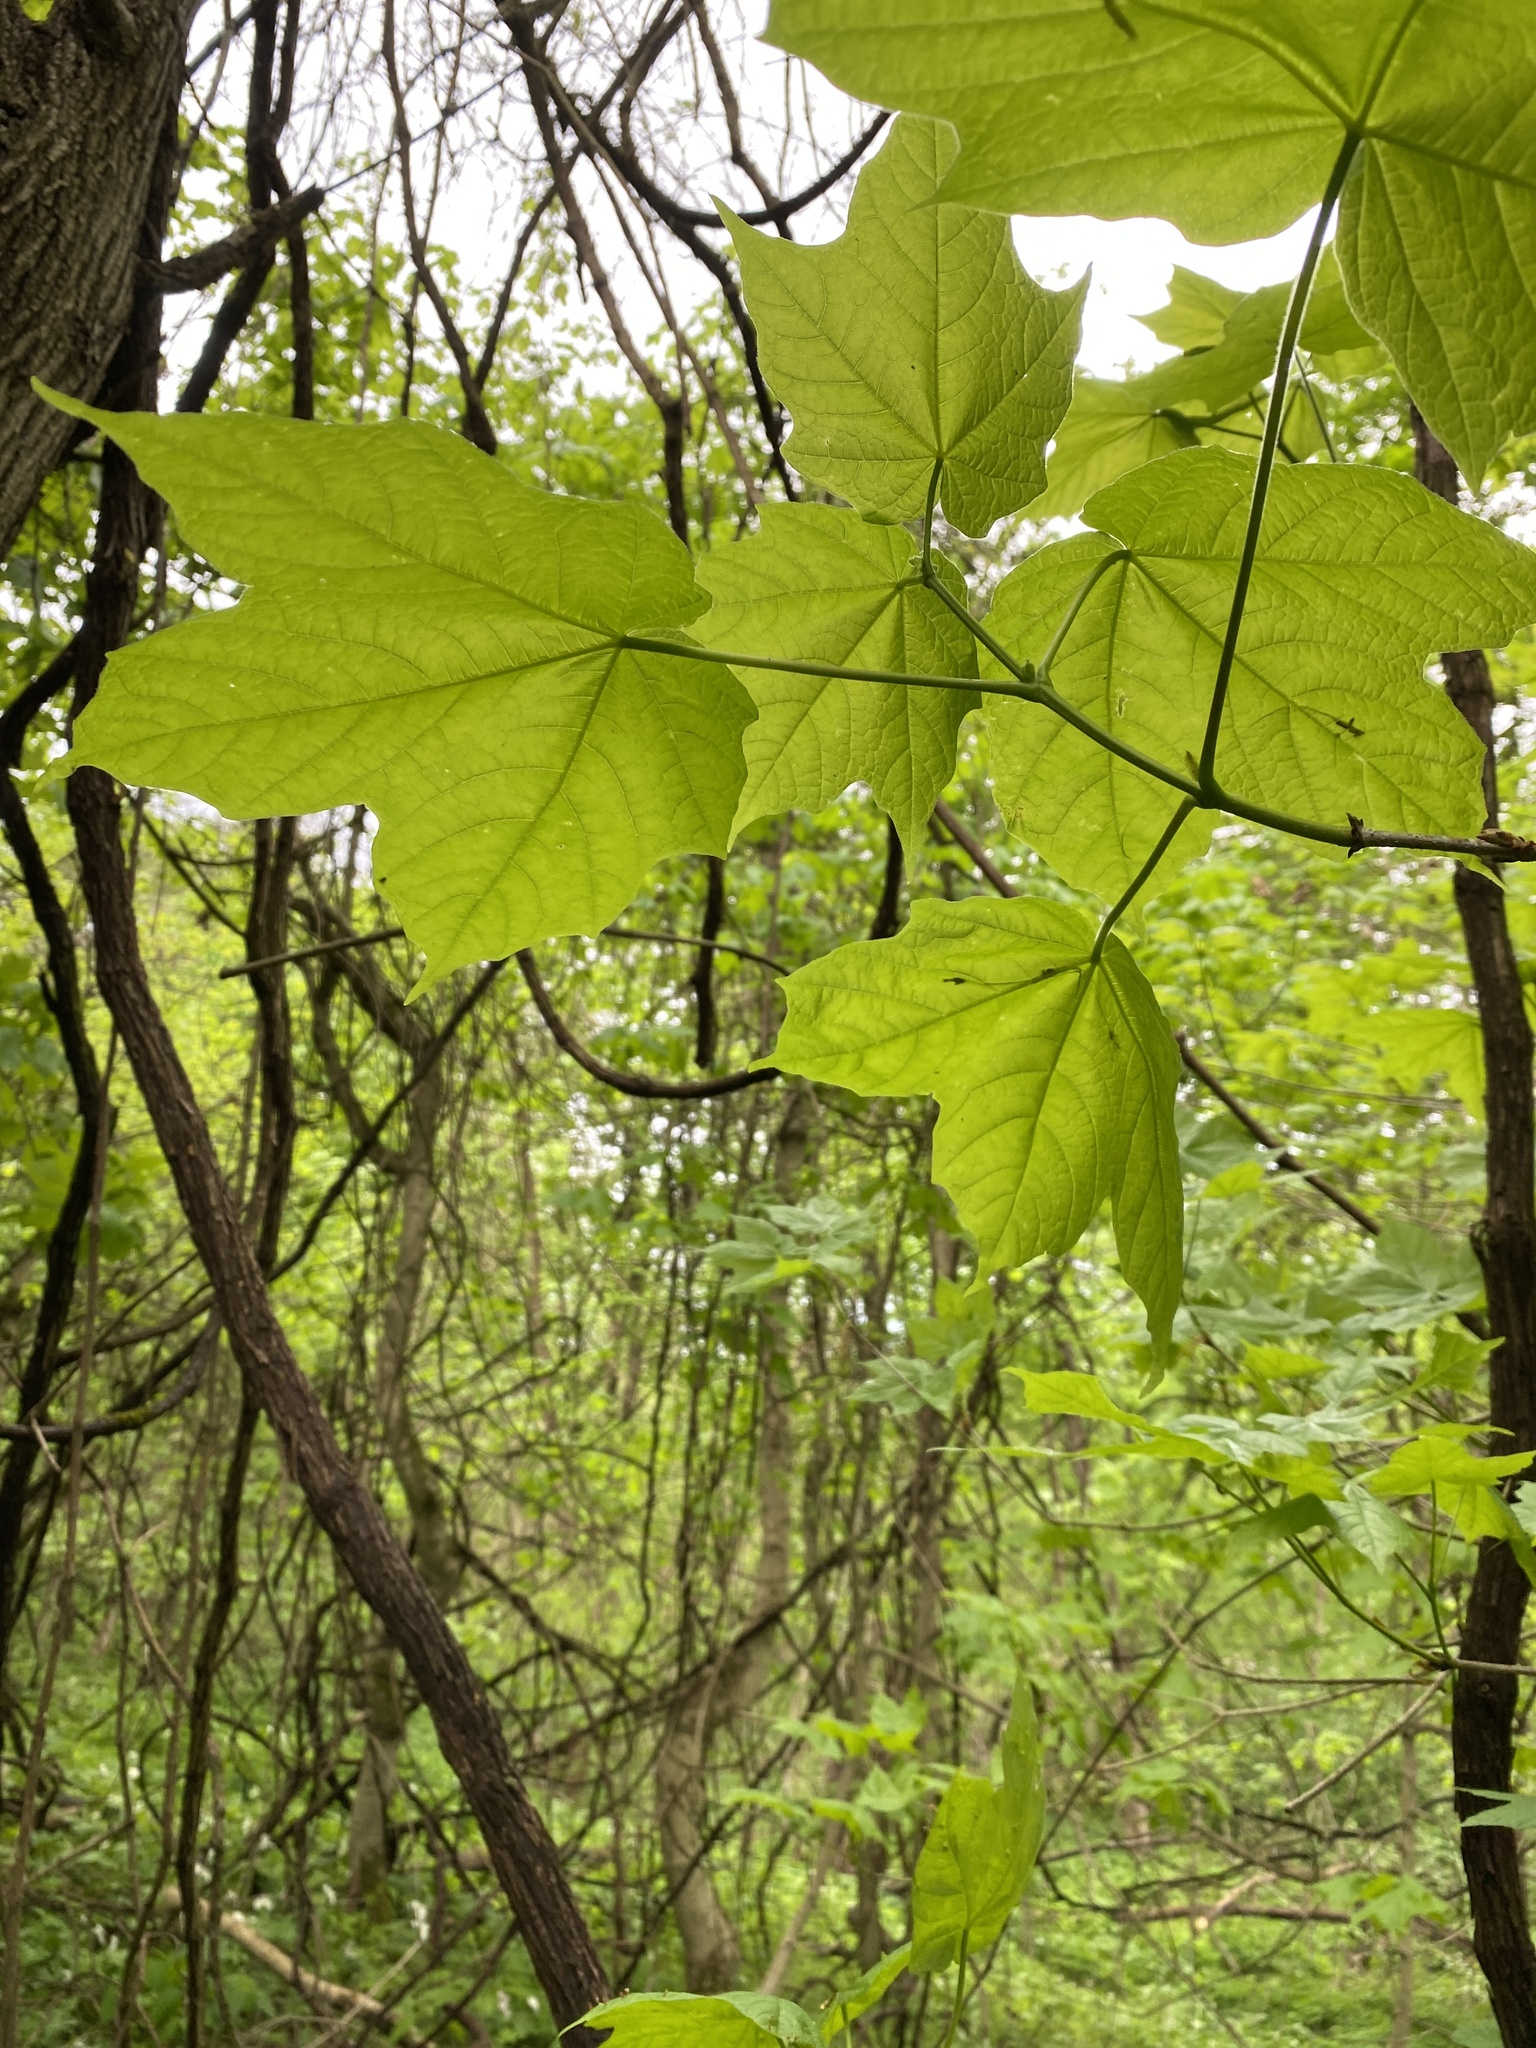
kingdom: Plantae
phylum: Tracheophyta
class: Magnoliopsida
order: Sapindales
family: Sapindaceae
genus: Acer
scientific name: Acer nigrum
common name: Black maple
